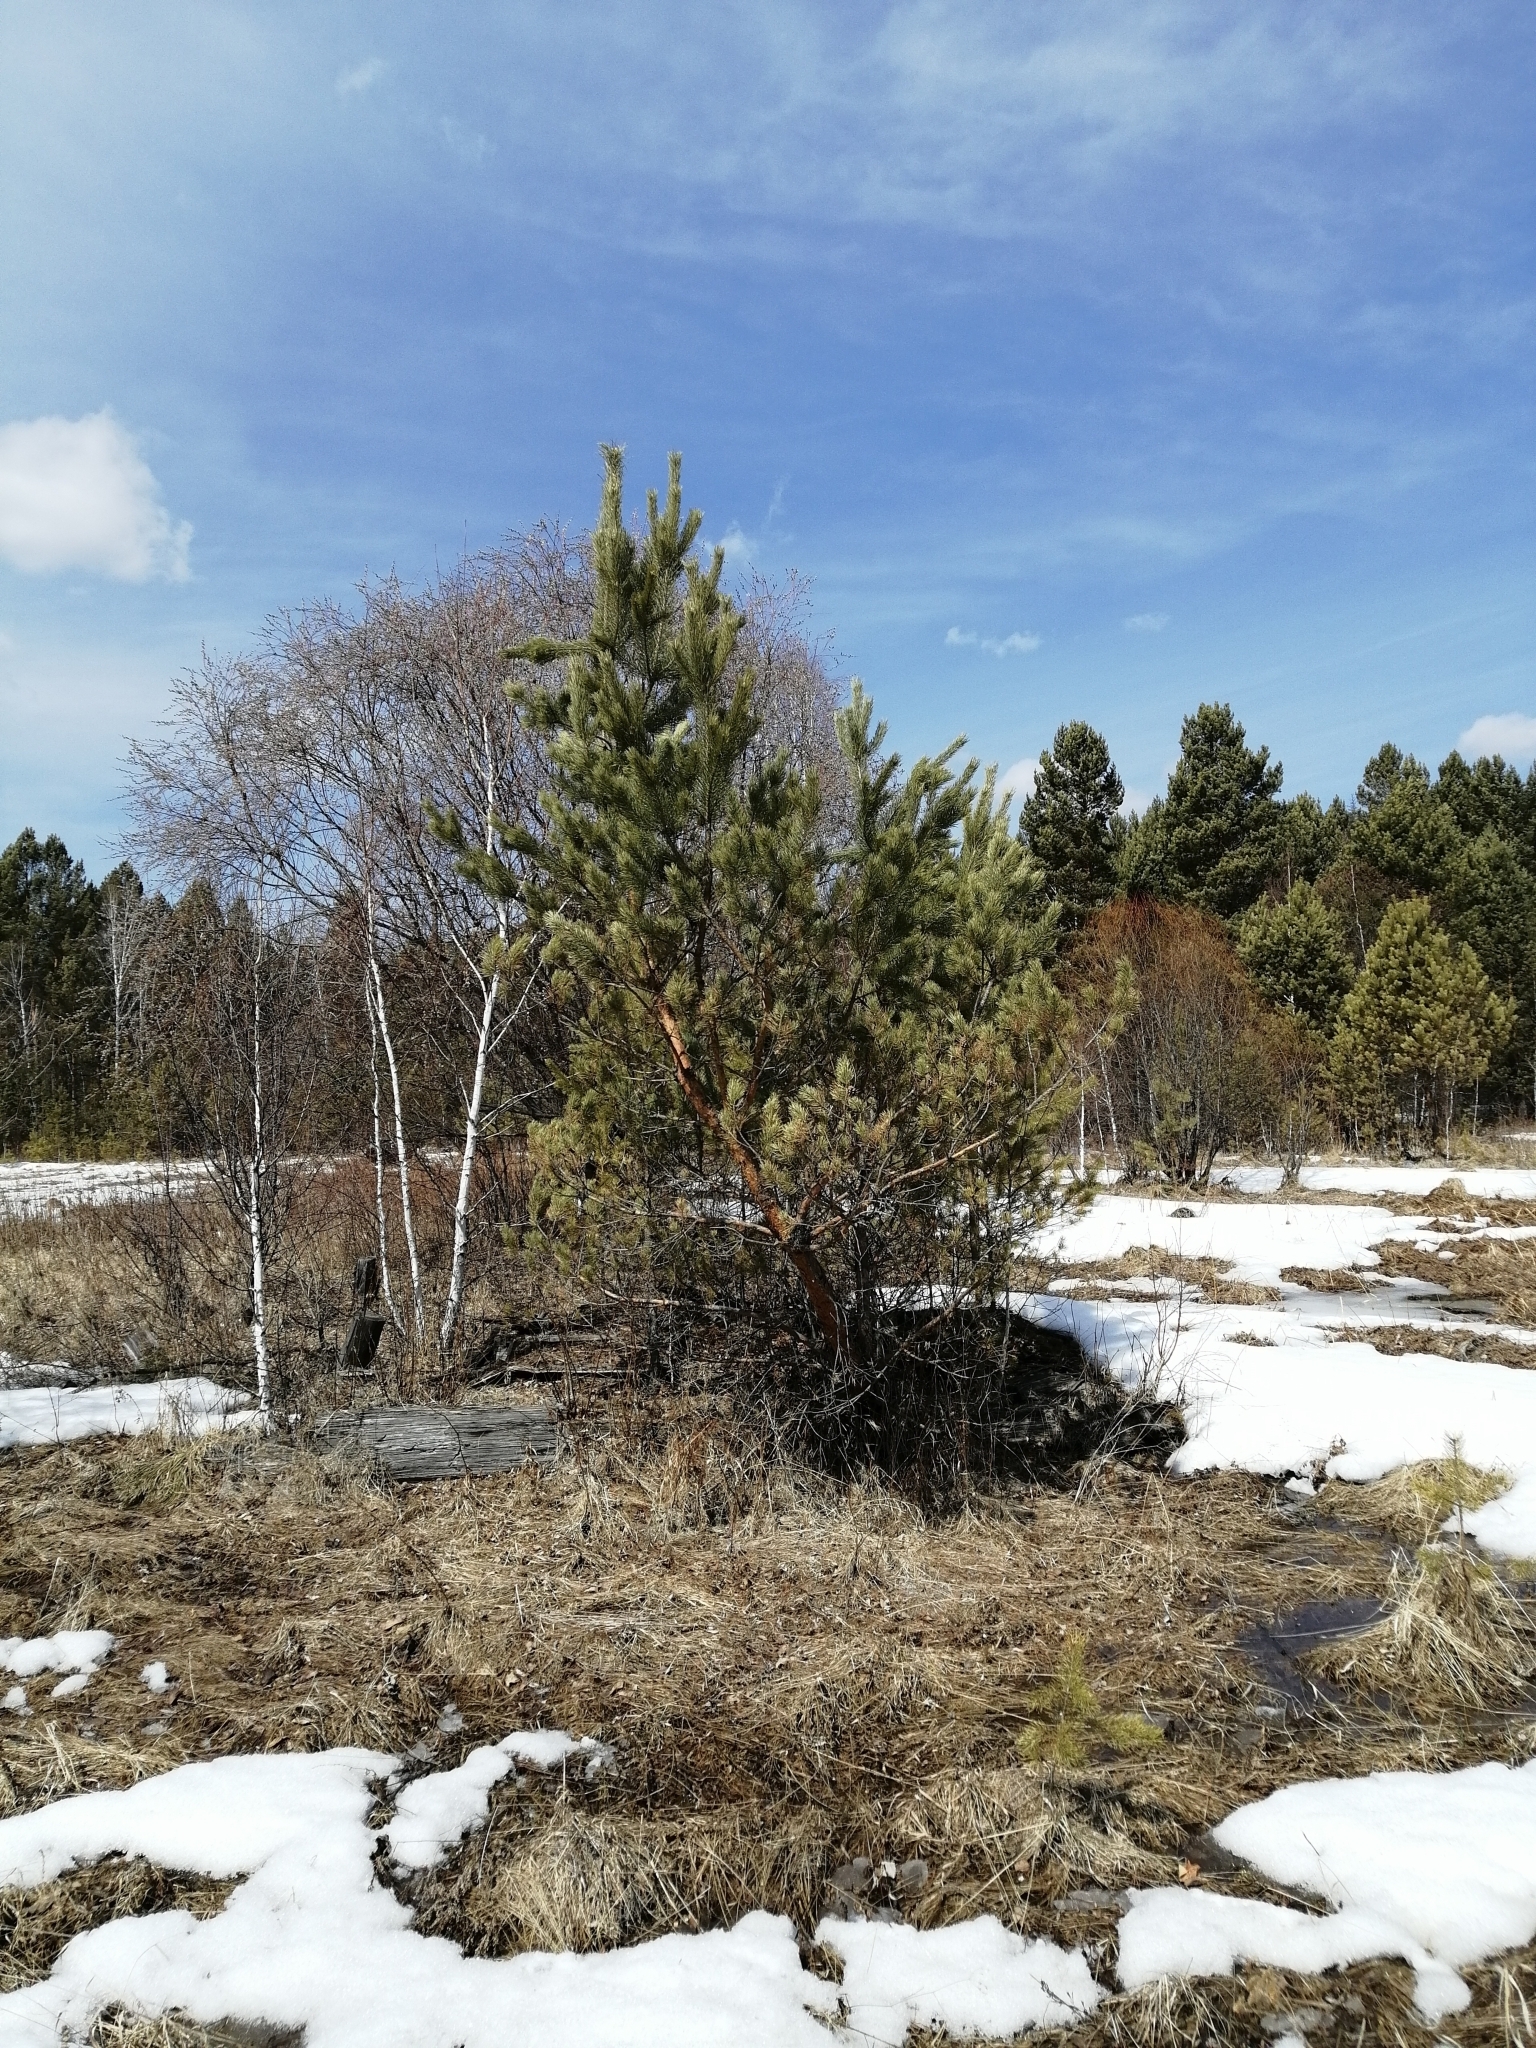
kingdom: Plantae
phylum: Tracheophyta
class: Pinopsida
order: Pinales
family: Pinaceae
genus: Pinus
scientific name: Pinus sylvestris
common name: Scots pine
